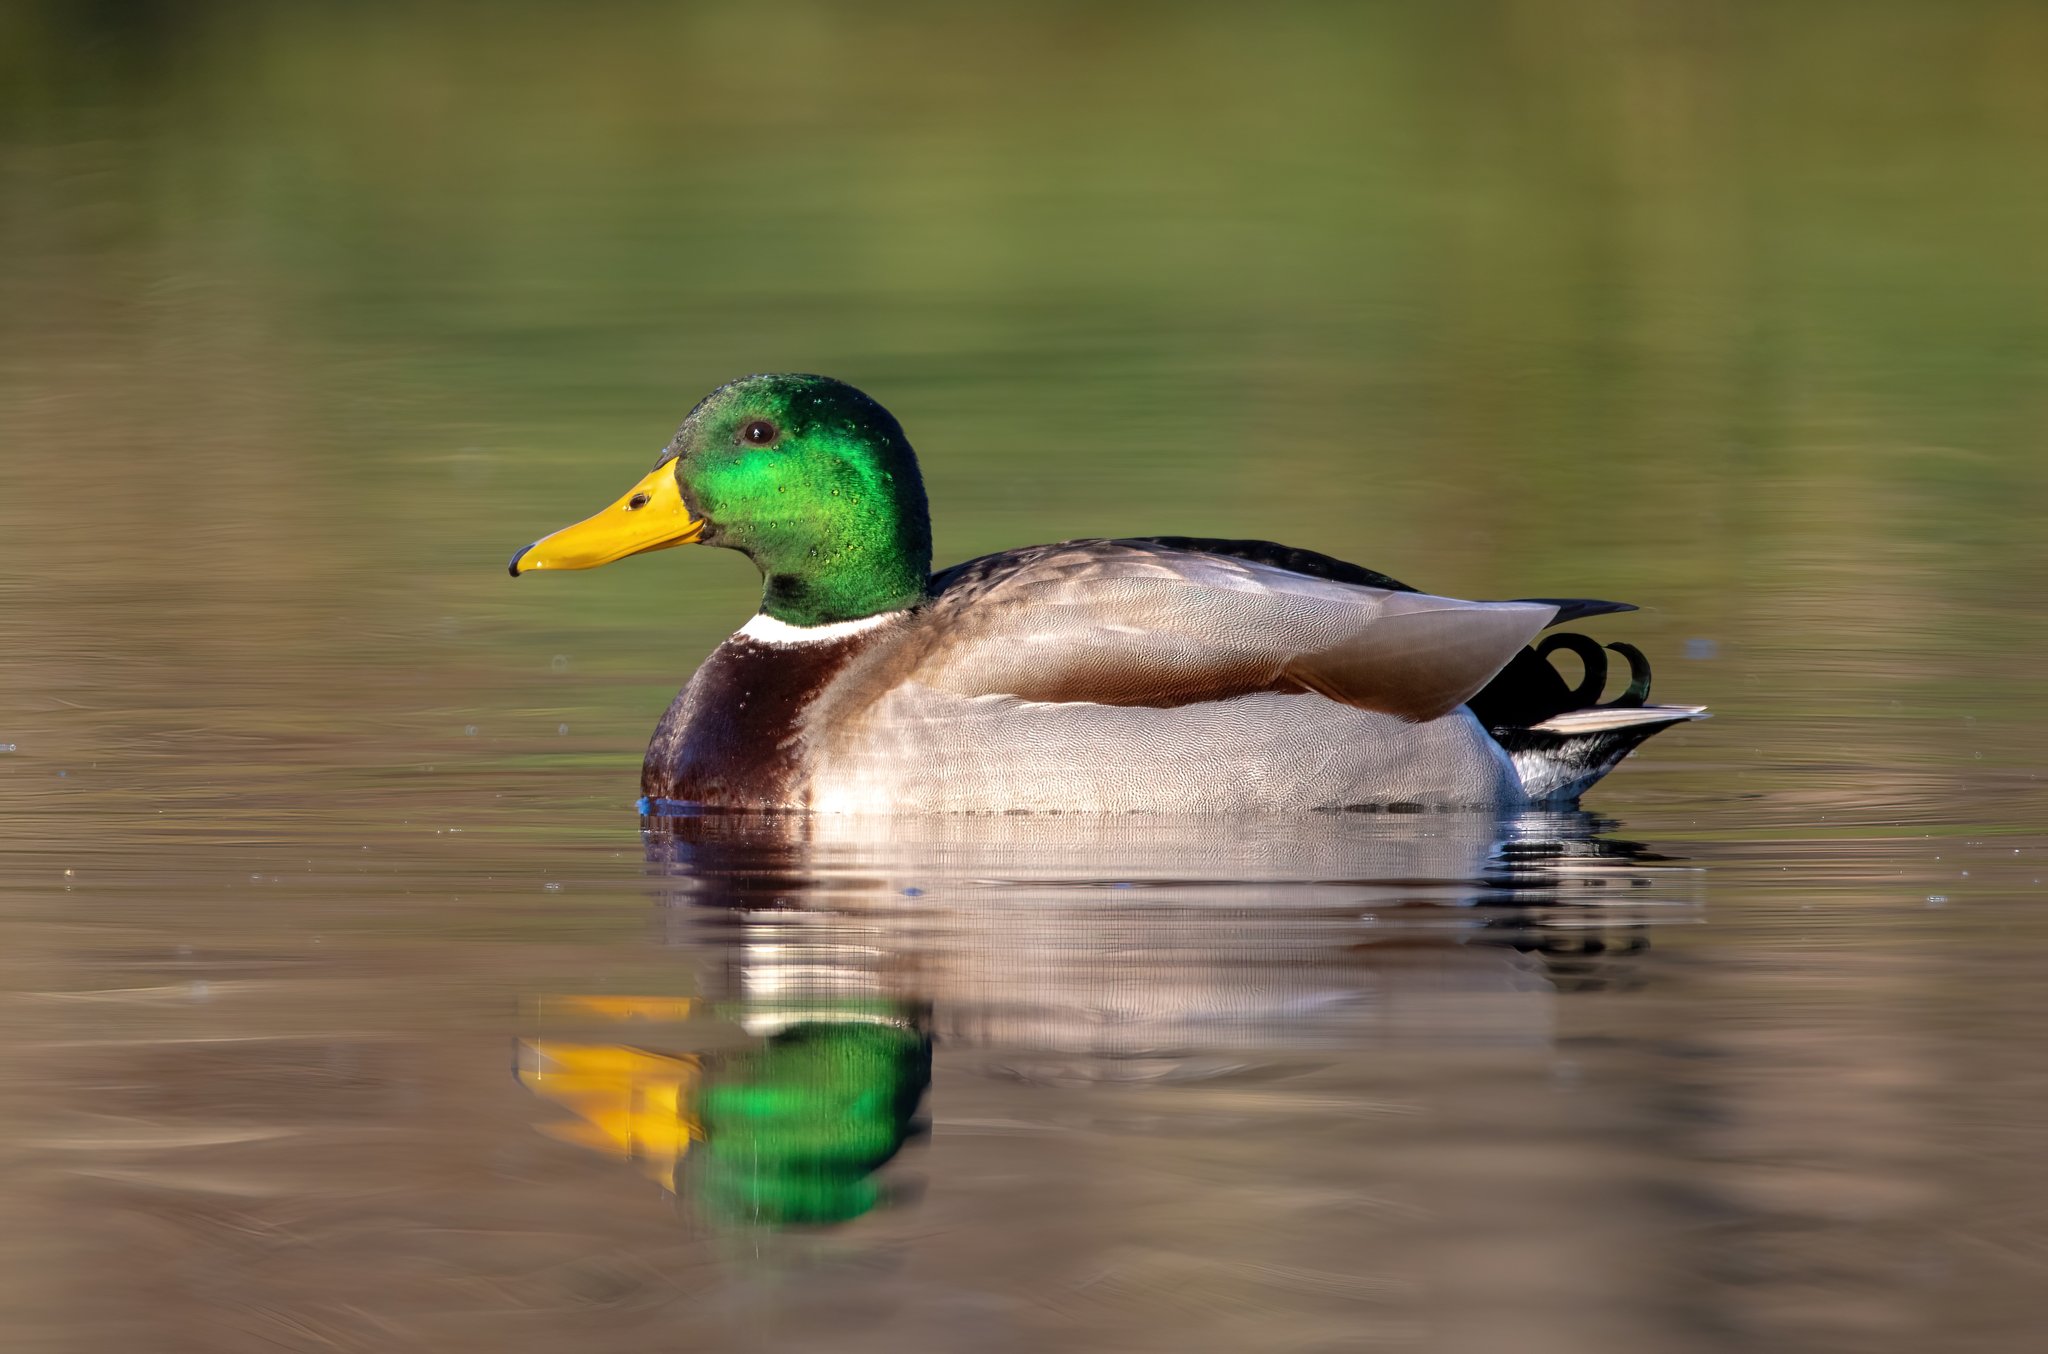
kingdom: Animalia
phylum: Chordata
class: Aves
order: Anseriformes
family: Anatidae
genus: Anas
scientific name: Anas platyrhynchos
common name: Mallard
